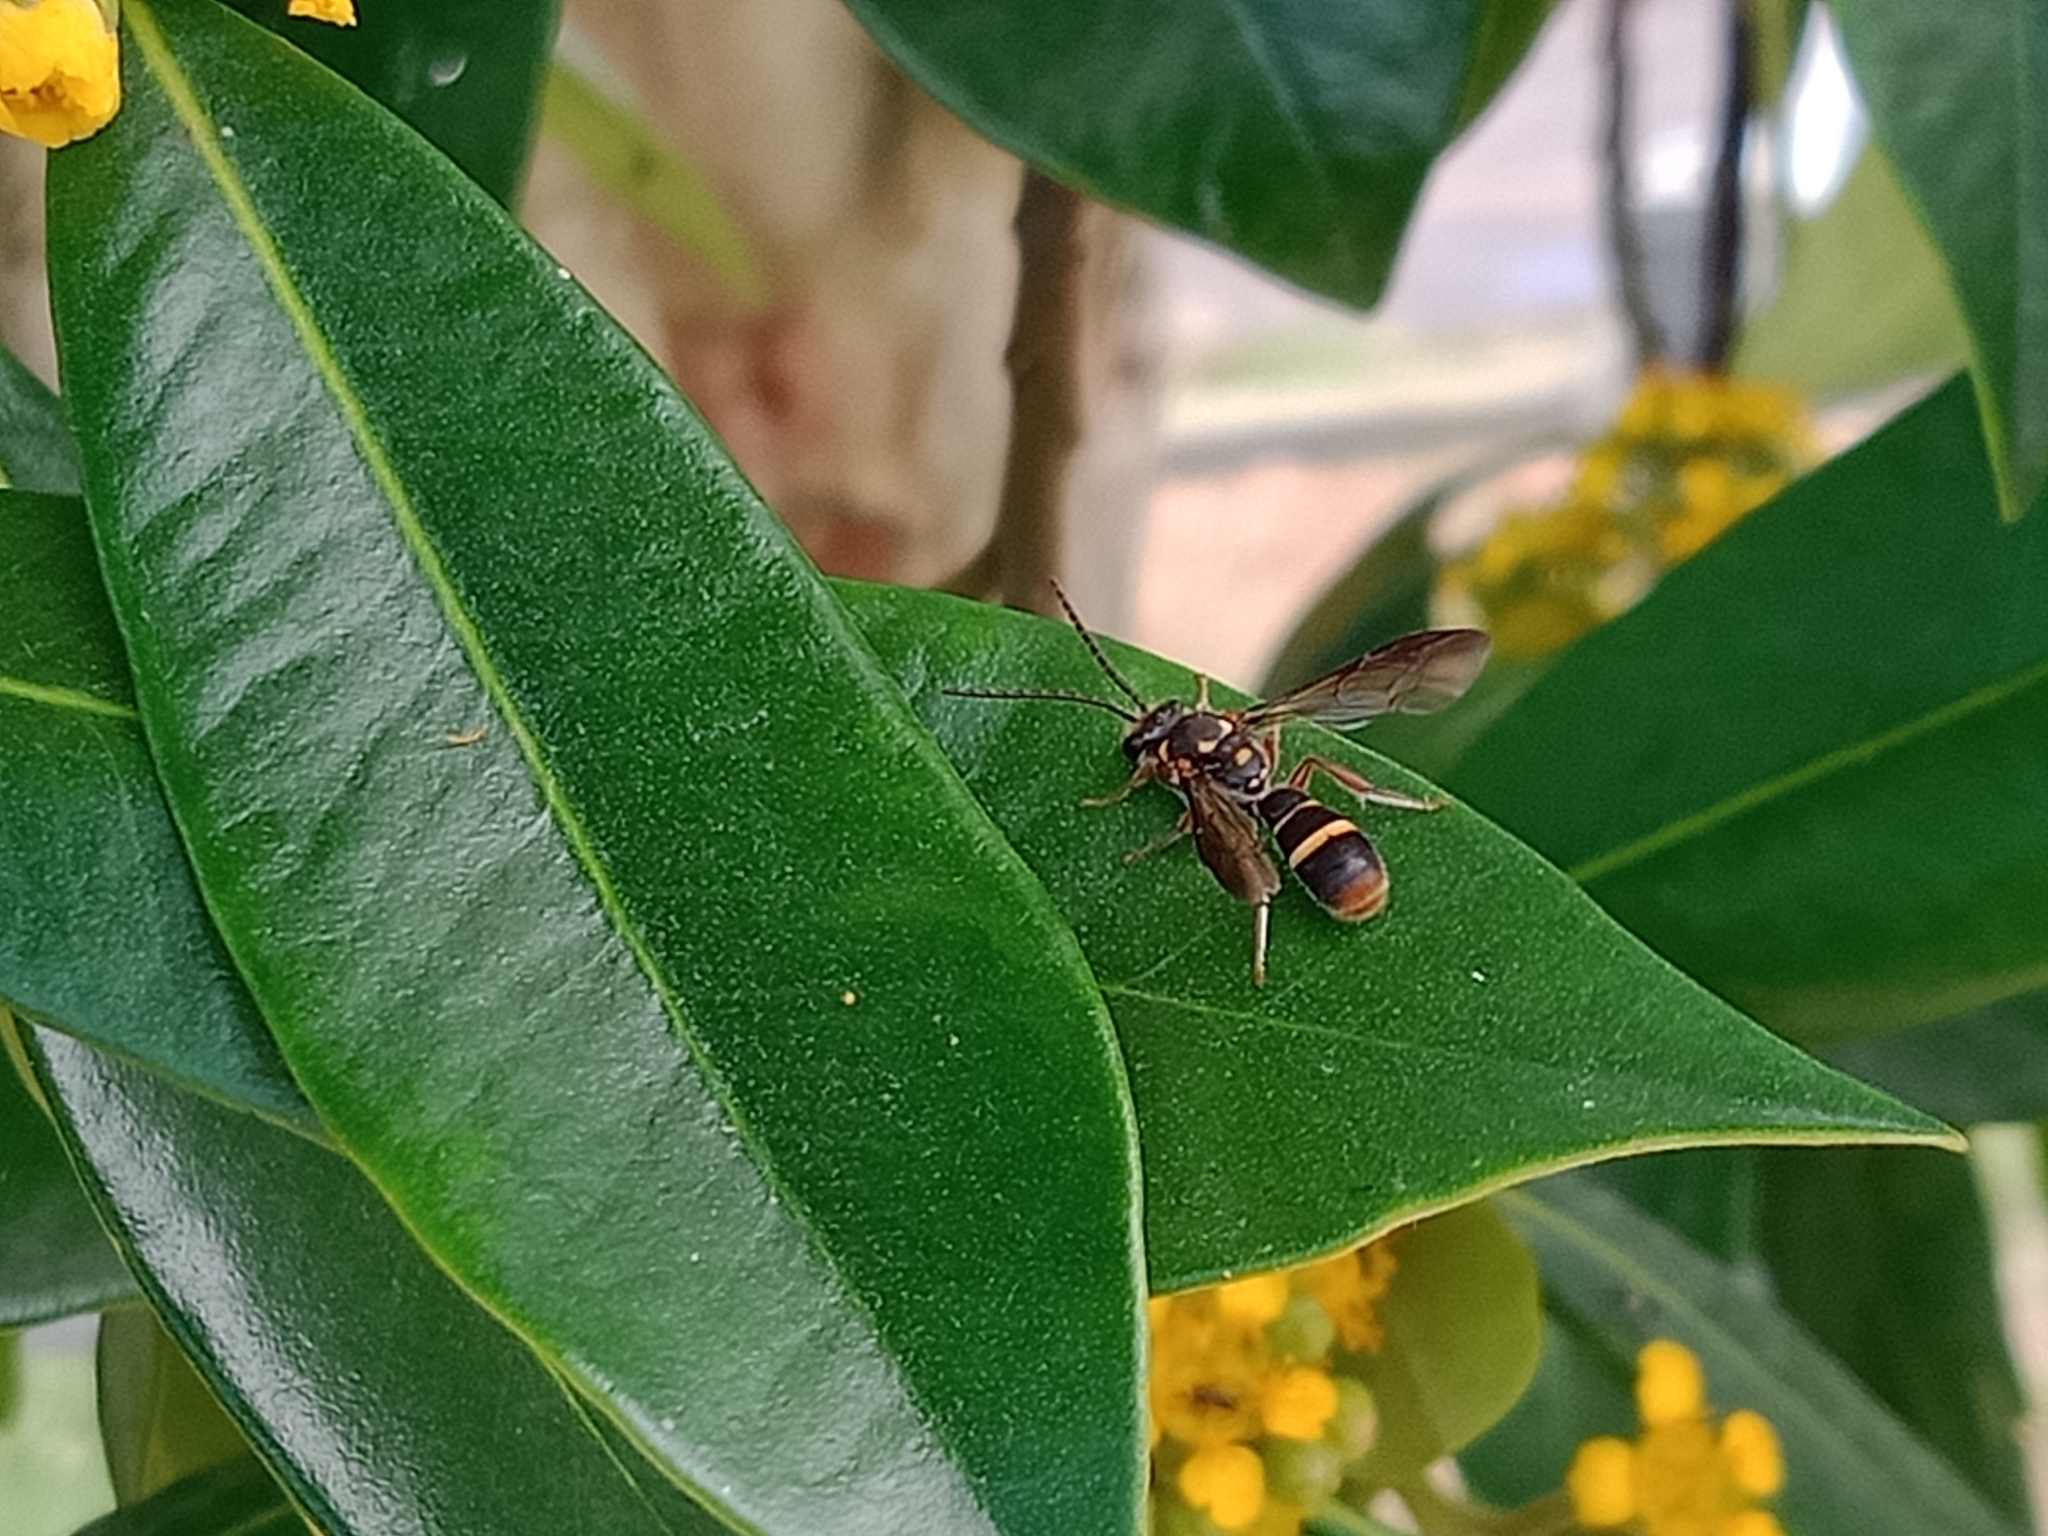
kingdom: Animalia
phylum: Arthropoda
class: Insecta
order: Hymenoptera
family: Halictidae
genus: Lasioglossum
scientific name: Lasioglossum peraustrale
